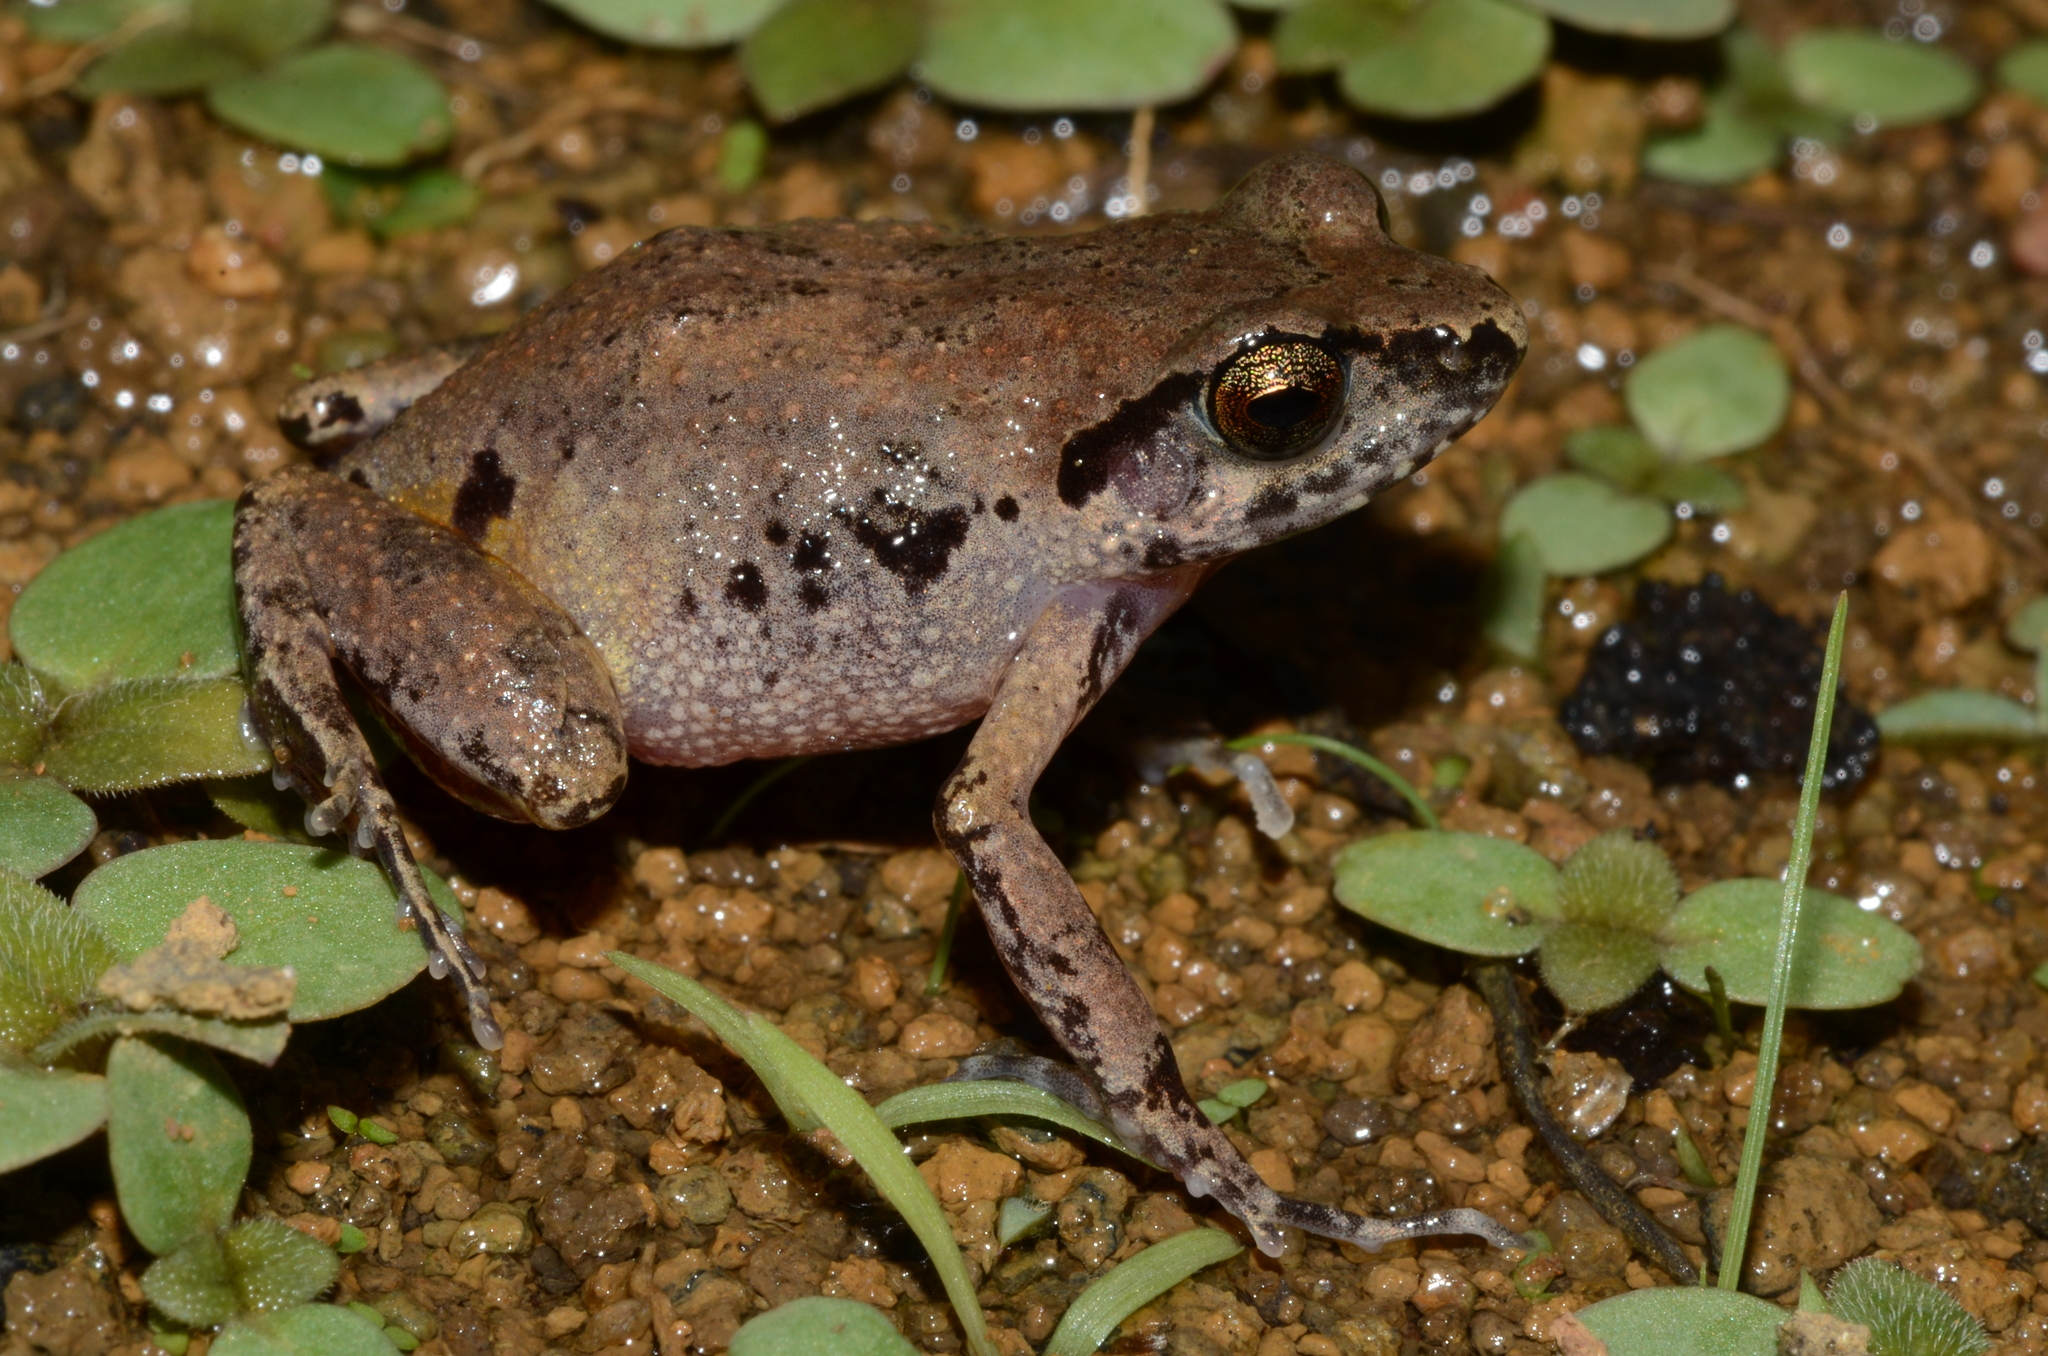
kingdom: Animalia
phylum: Chordata
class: Amphibia
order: Anura
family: Arthroleptidae
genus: Arthroleptis
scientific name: Arthroleptis poecilonotus
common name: West african screeching frog
